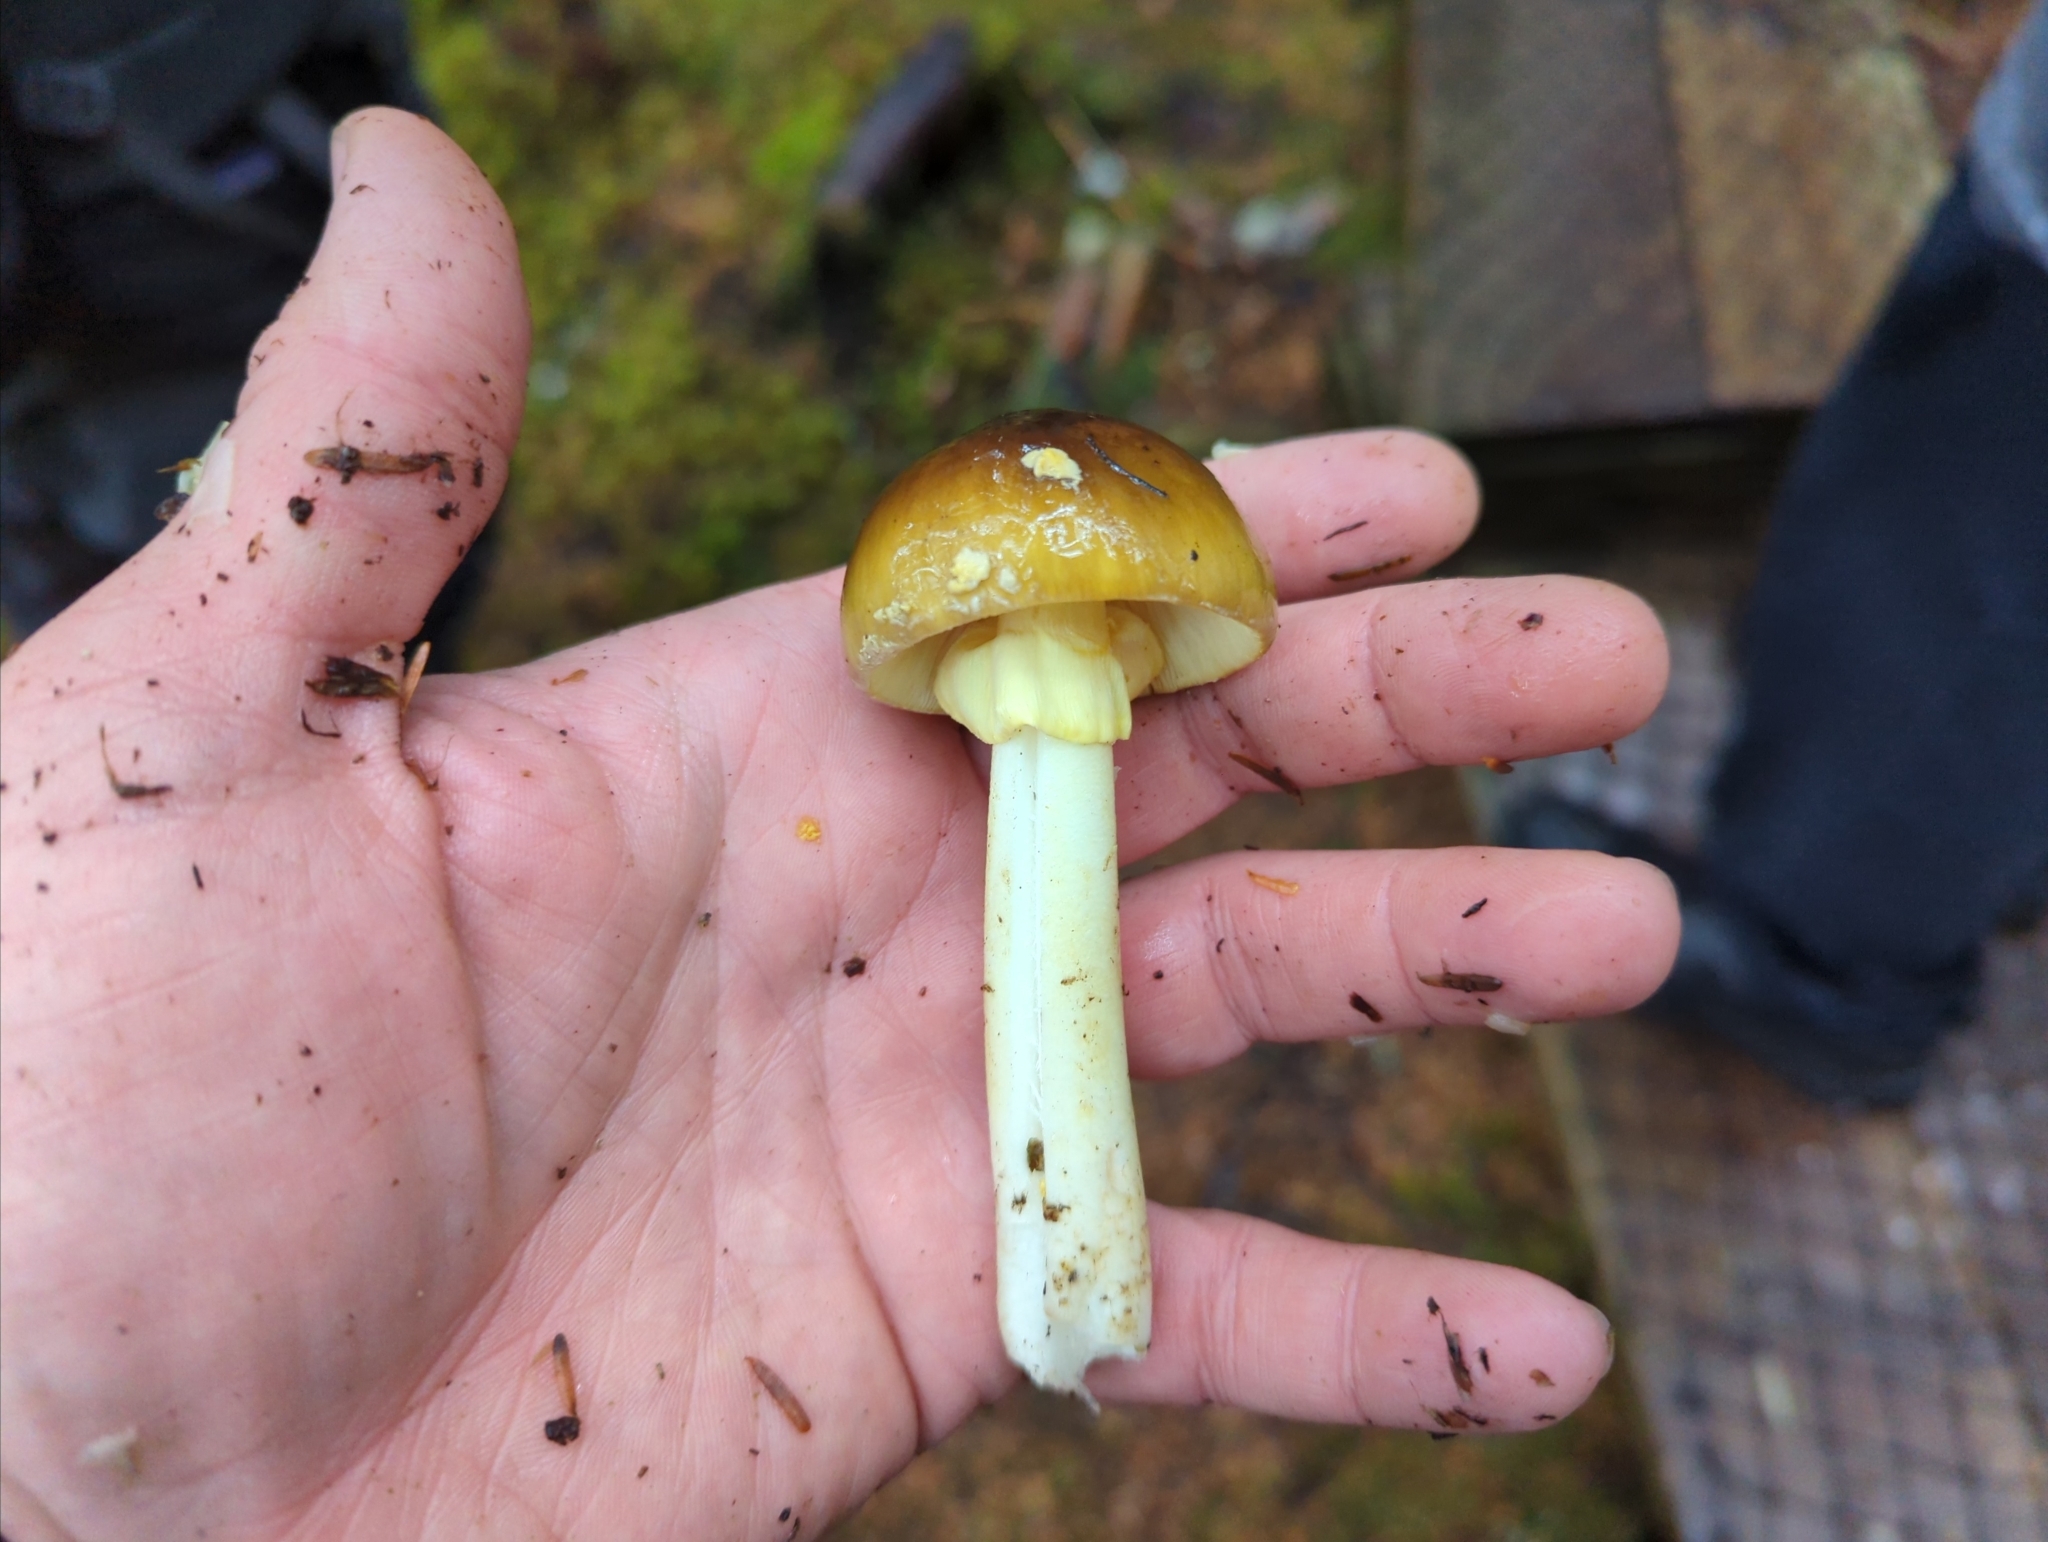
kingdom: Fungi
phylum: Basidiomycota
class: Agaricomycetes
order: Agaricales
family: Amanitaceae
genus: Amanita
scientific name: Amanita augusta
